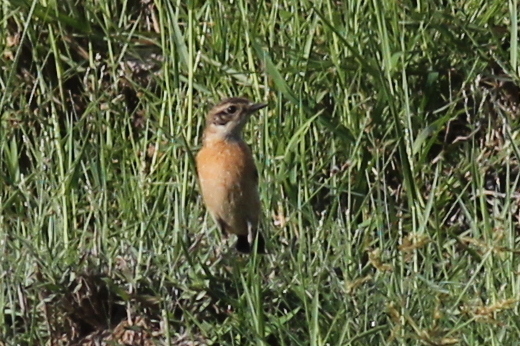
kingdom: Animalia
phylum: Chordata
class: Aves
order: Passeriformes
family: Muscicapidae
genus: Saxicola
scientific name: Saxicola stejnegeri
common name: Stejneger's stonechat
